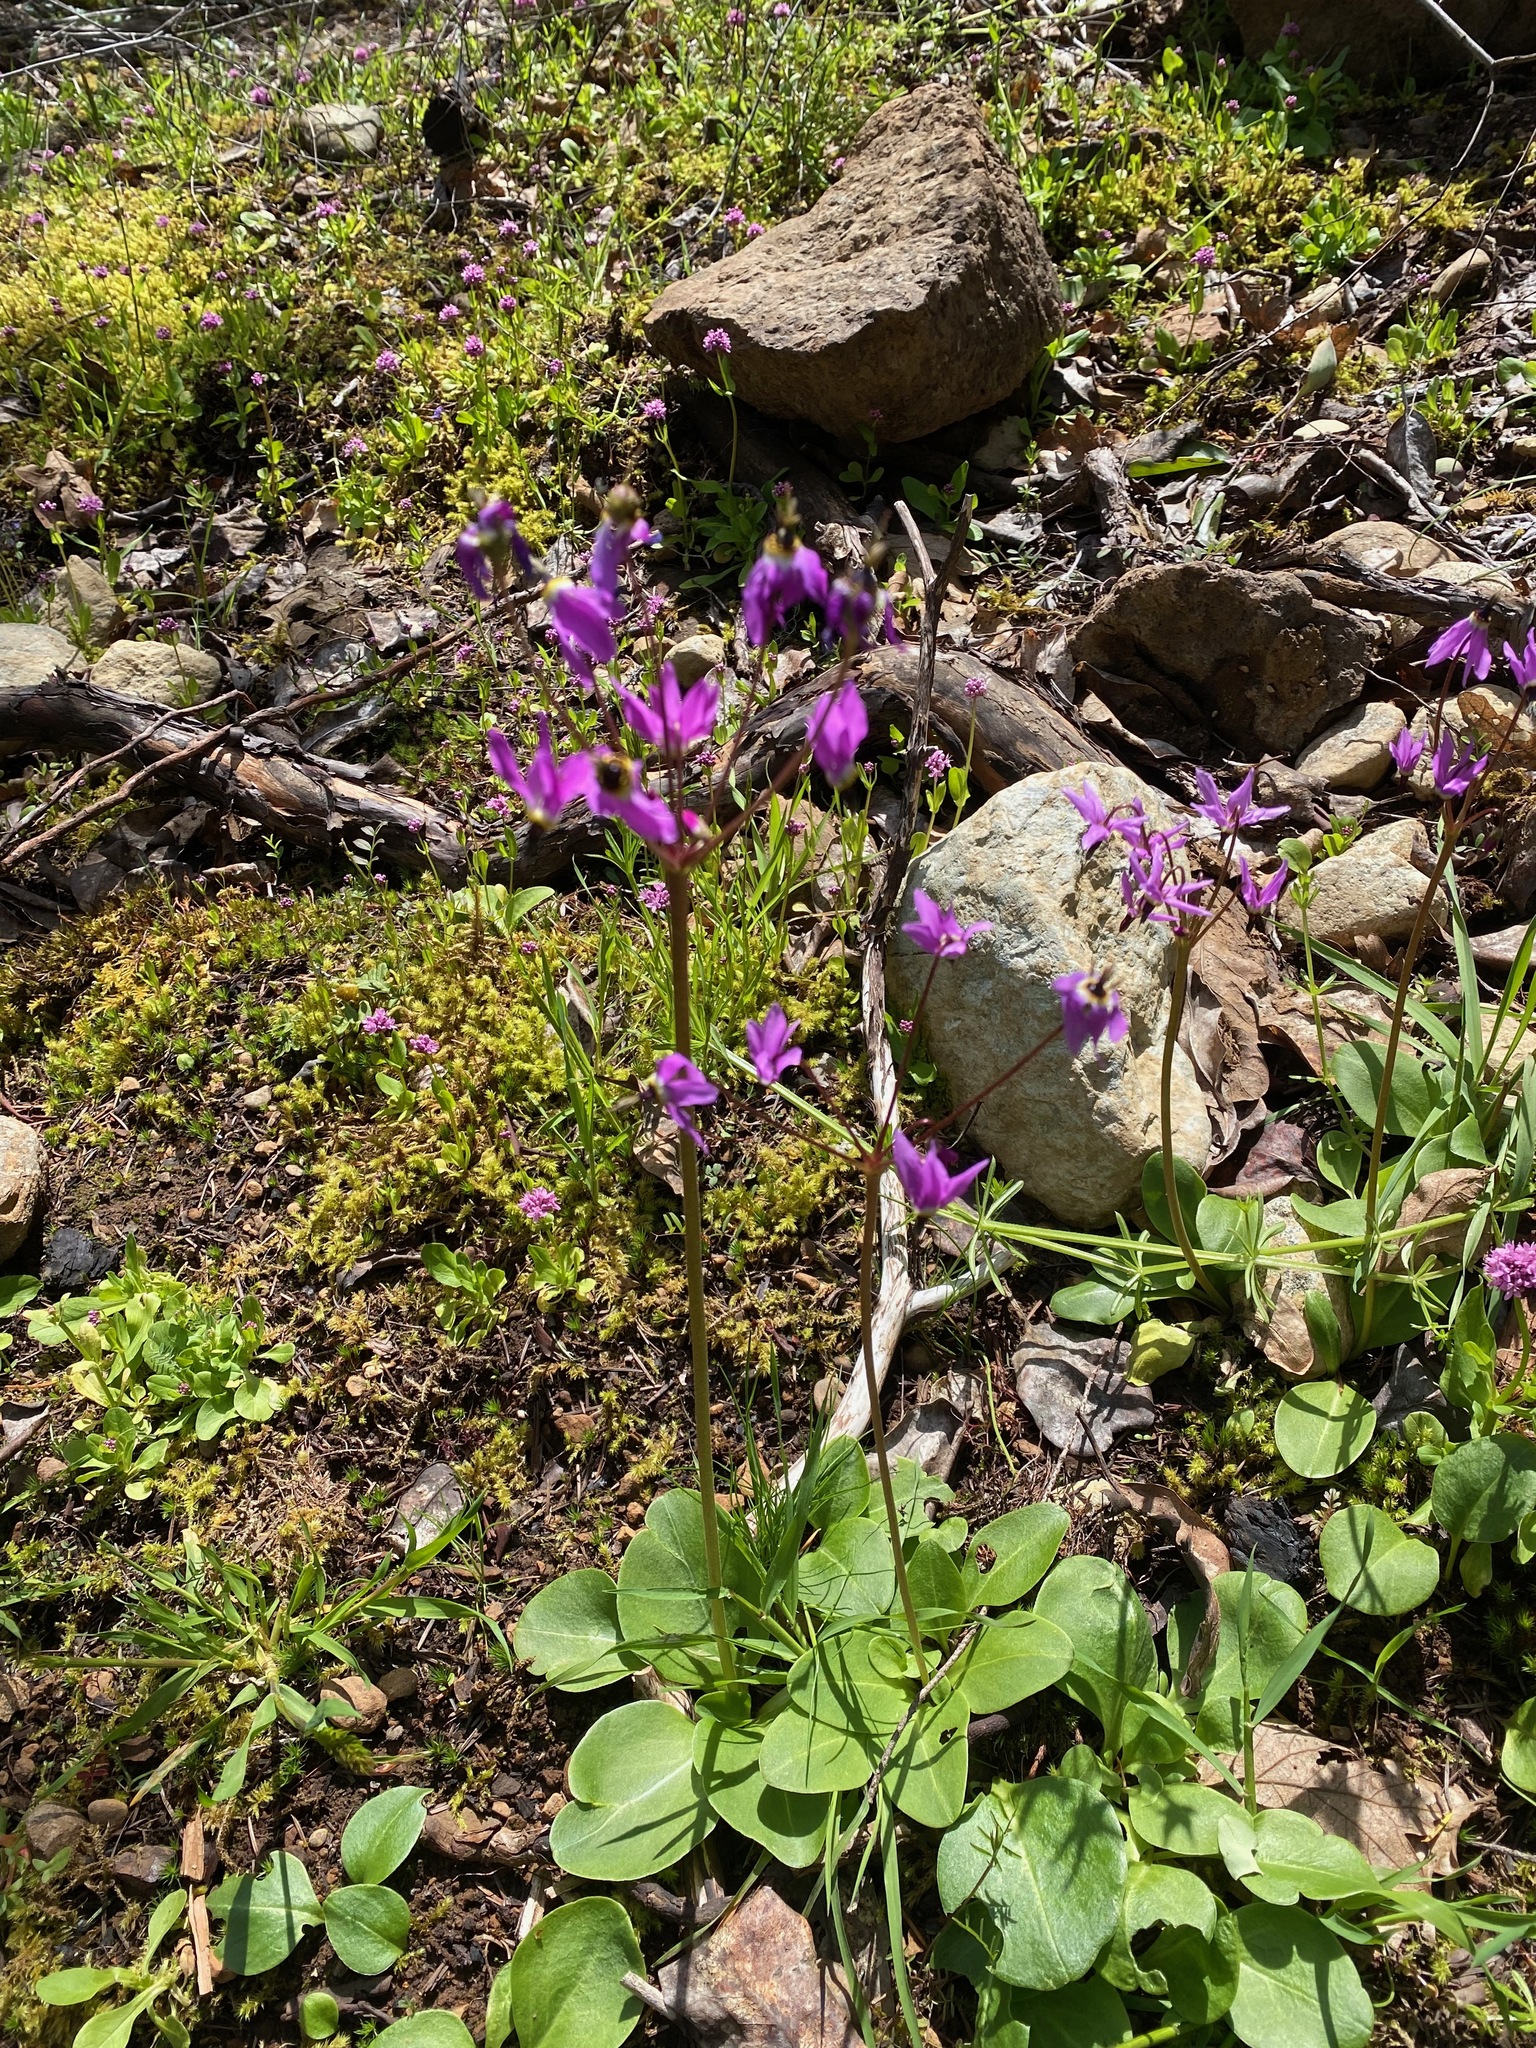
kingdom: Plantae
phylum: Tracheophyta
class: Magnoliopsida
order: Ericales
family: Primulaceae
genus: Dodecatheon
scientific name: Dodecatheon hendersonii
